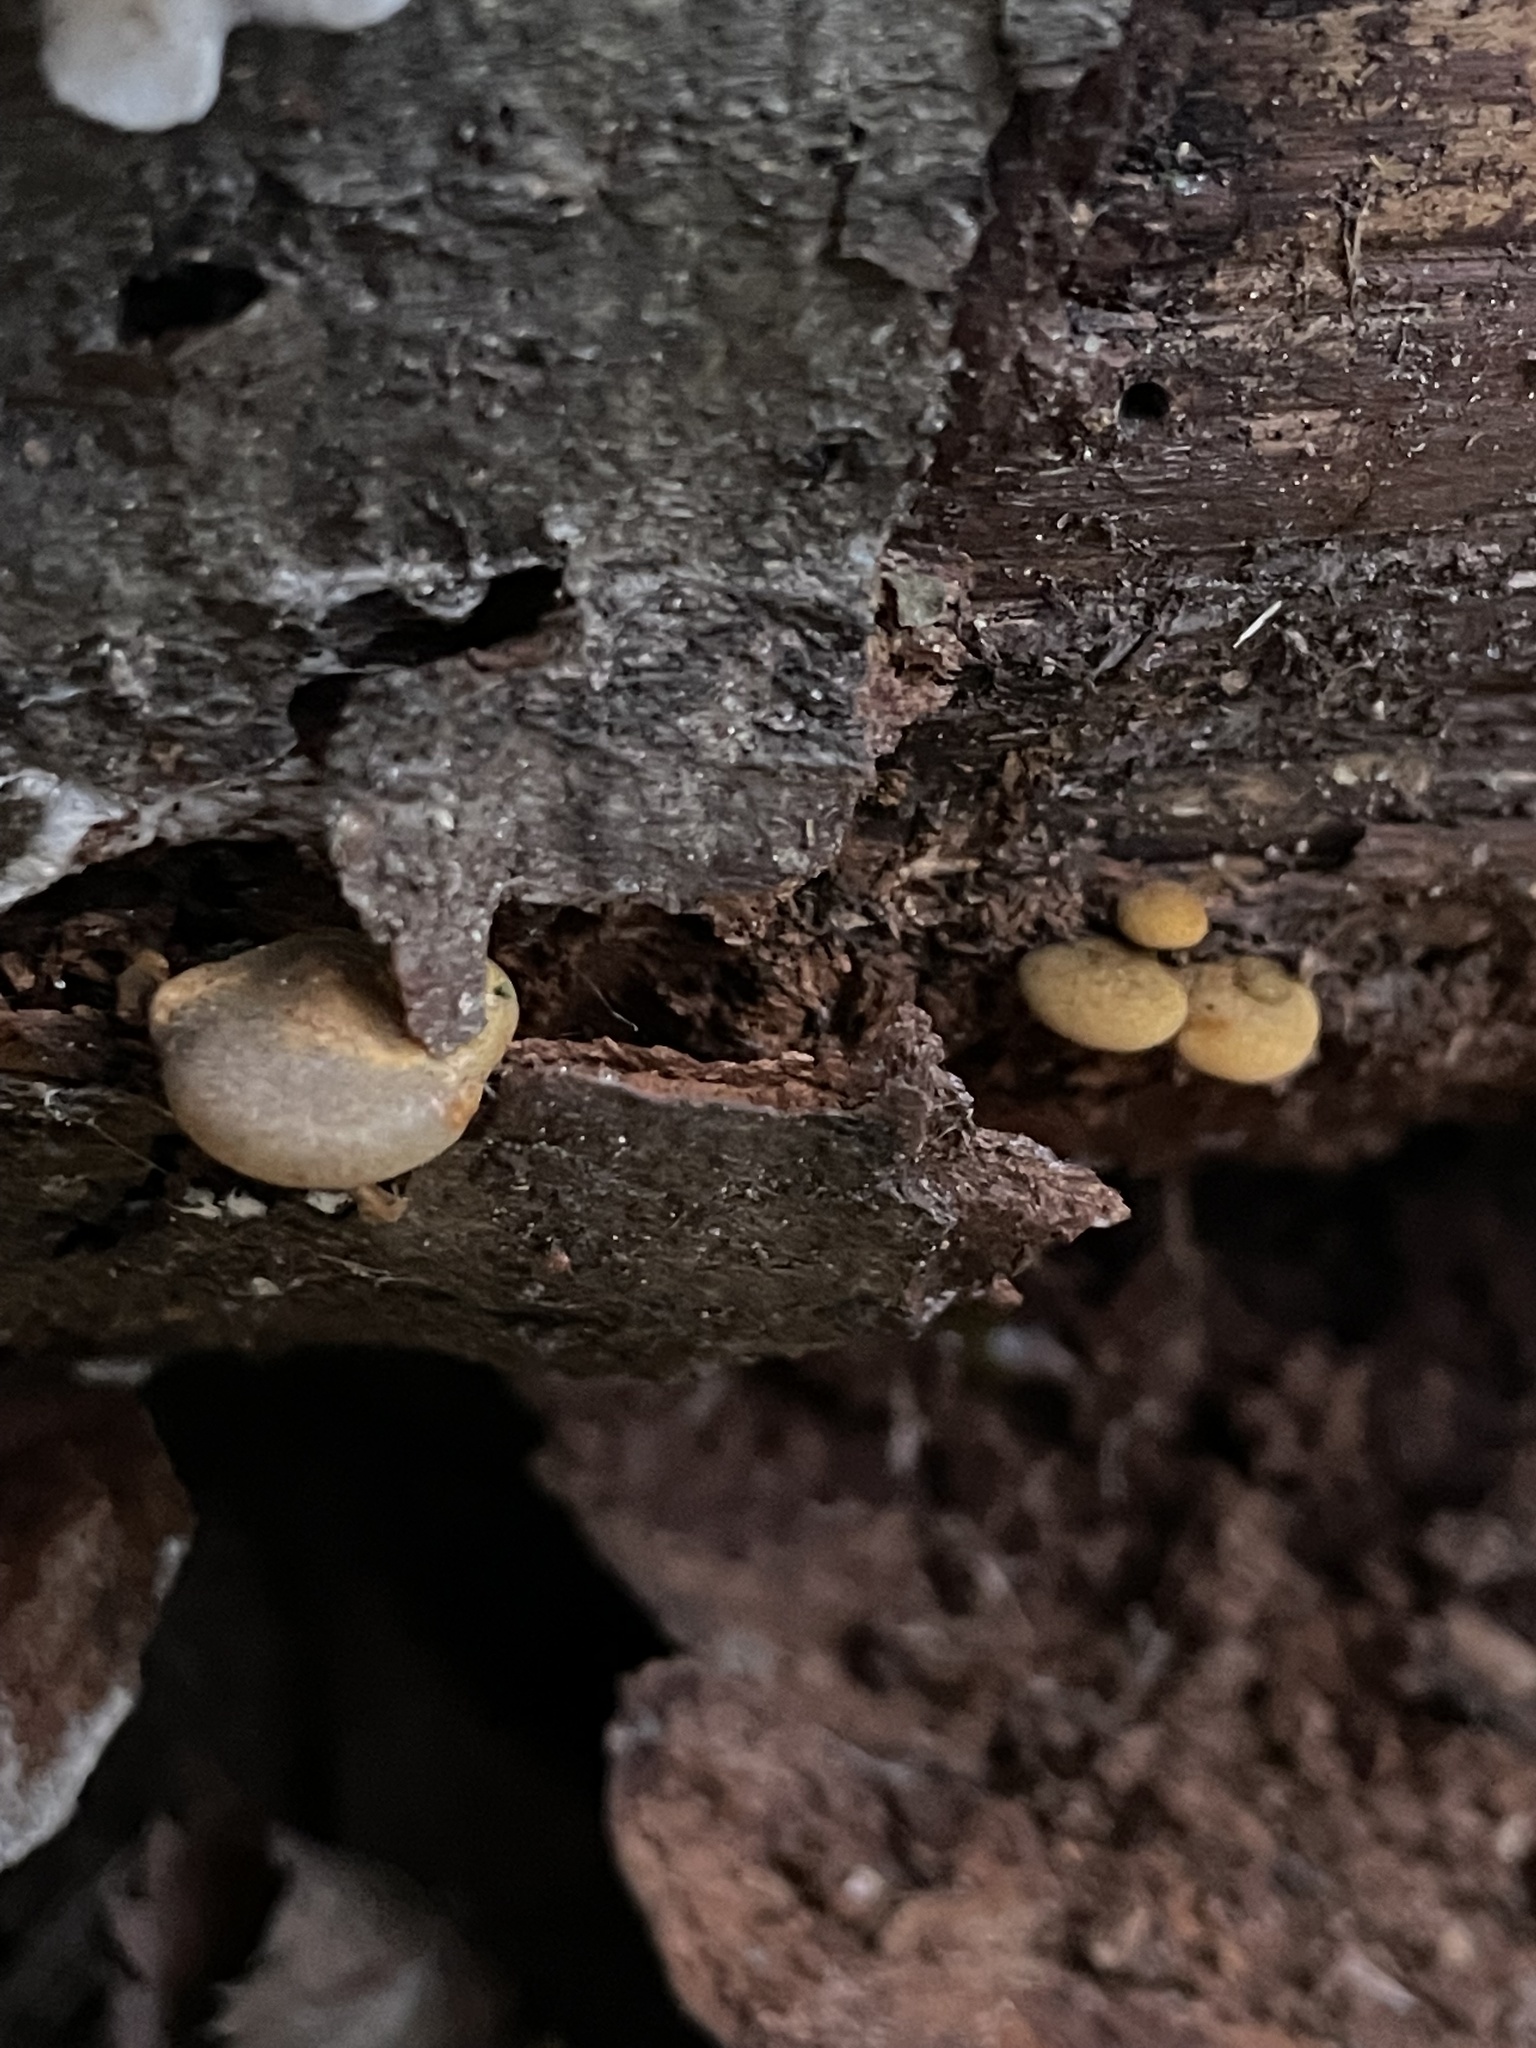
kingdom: Fungi
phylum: Basidiomycota
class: Agaricomycetes
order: Agaricales
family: Sarcomyxaceae
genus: Sarcomyxa
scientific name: Sarcomyxa serotina
